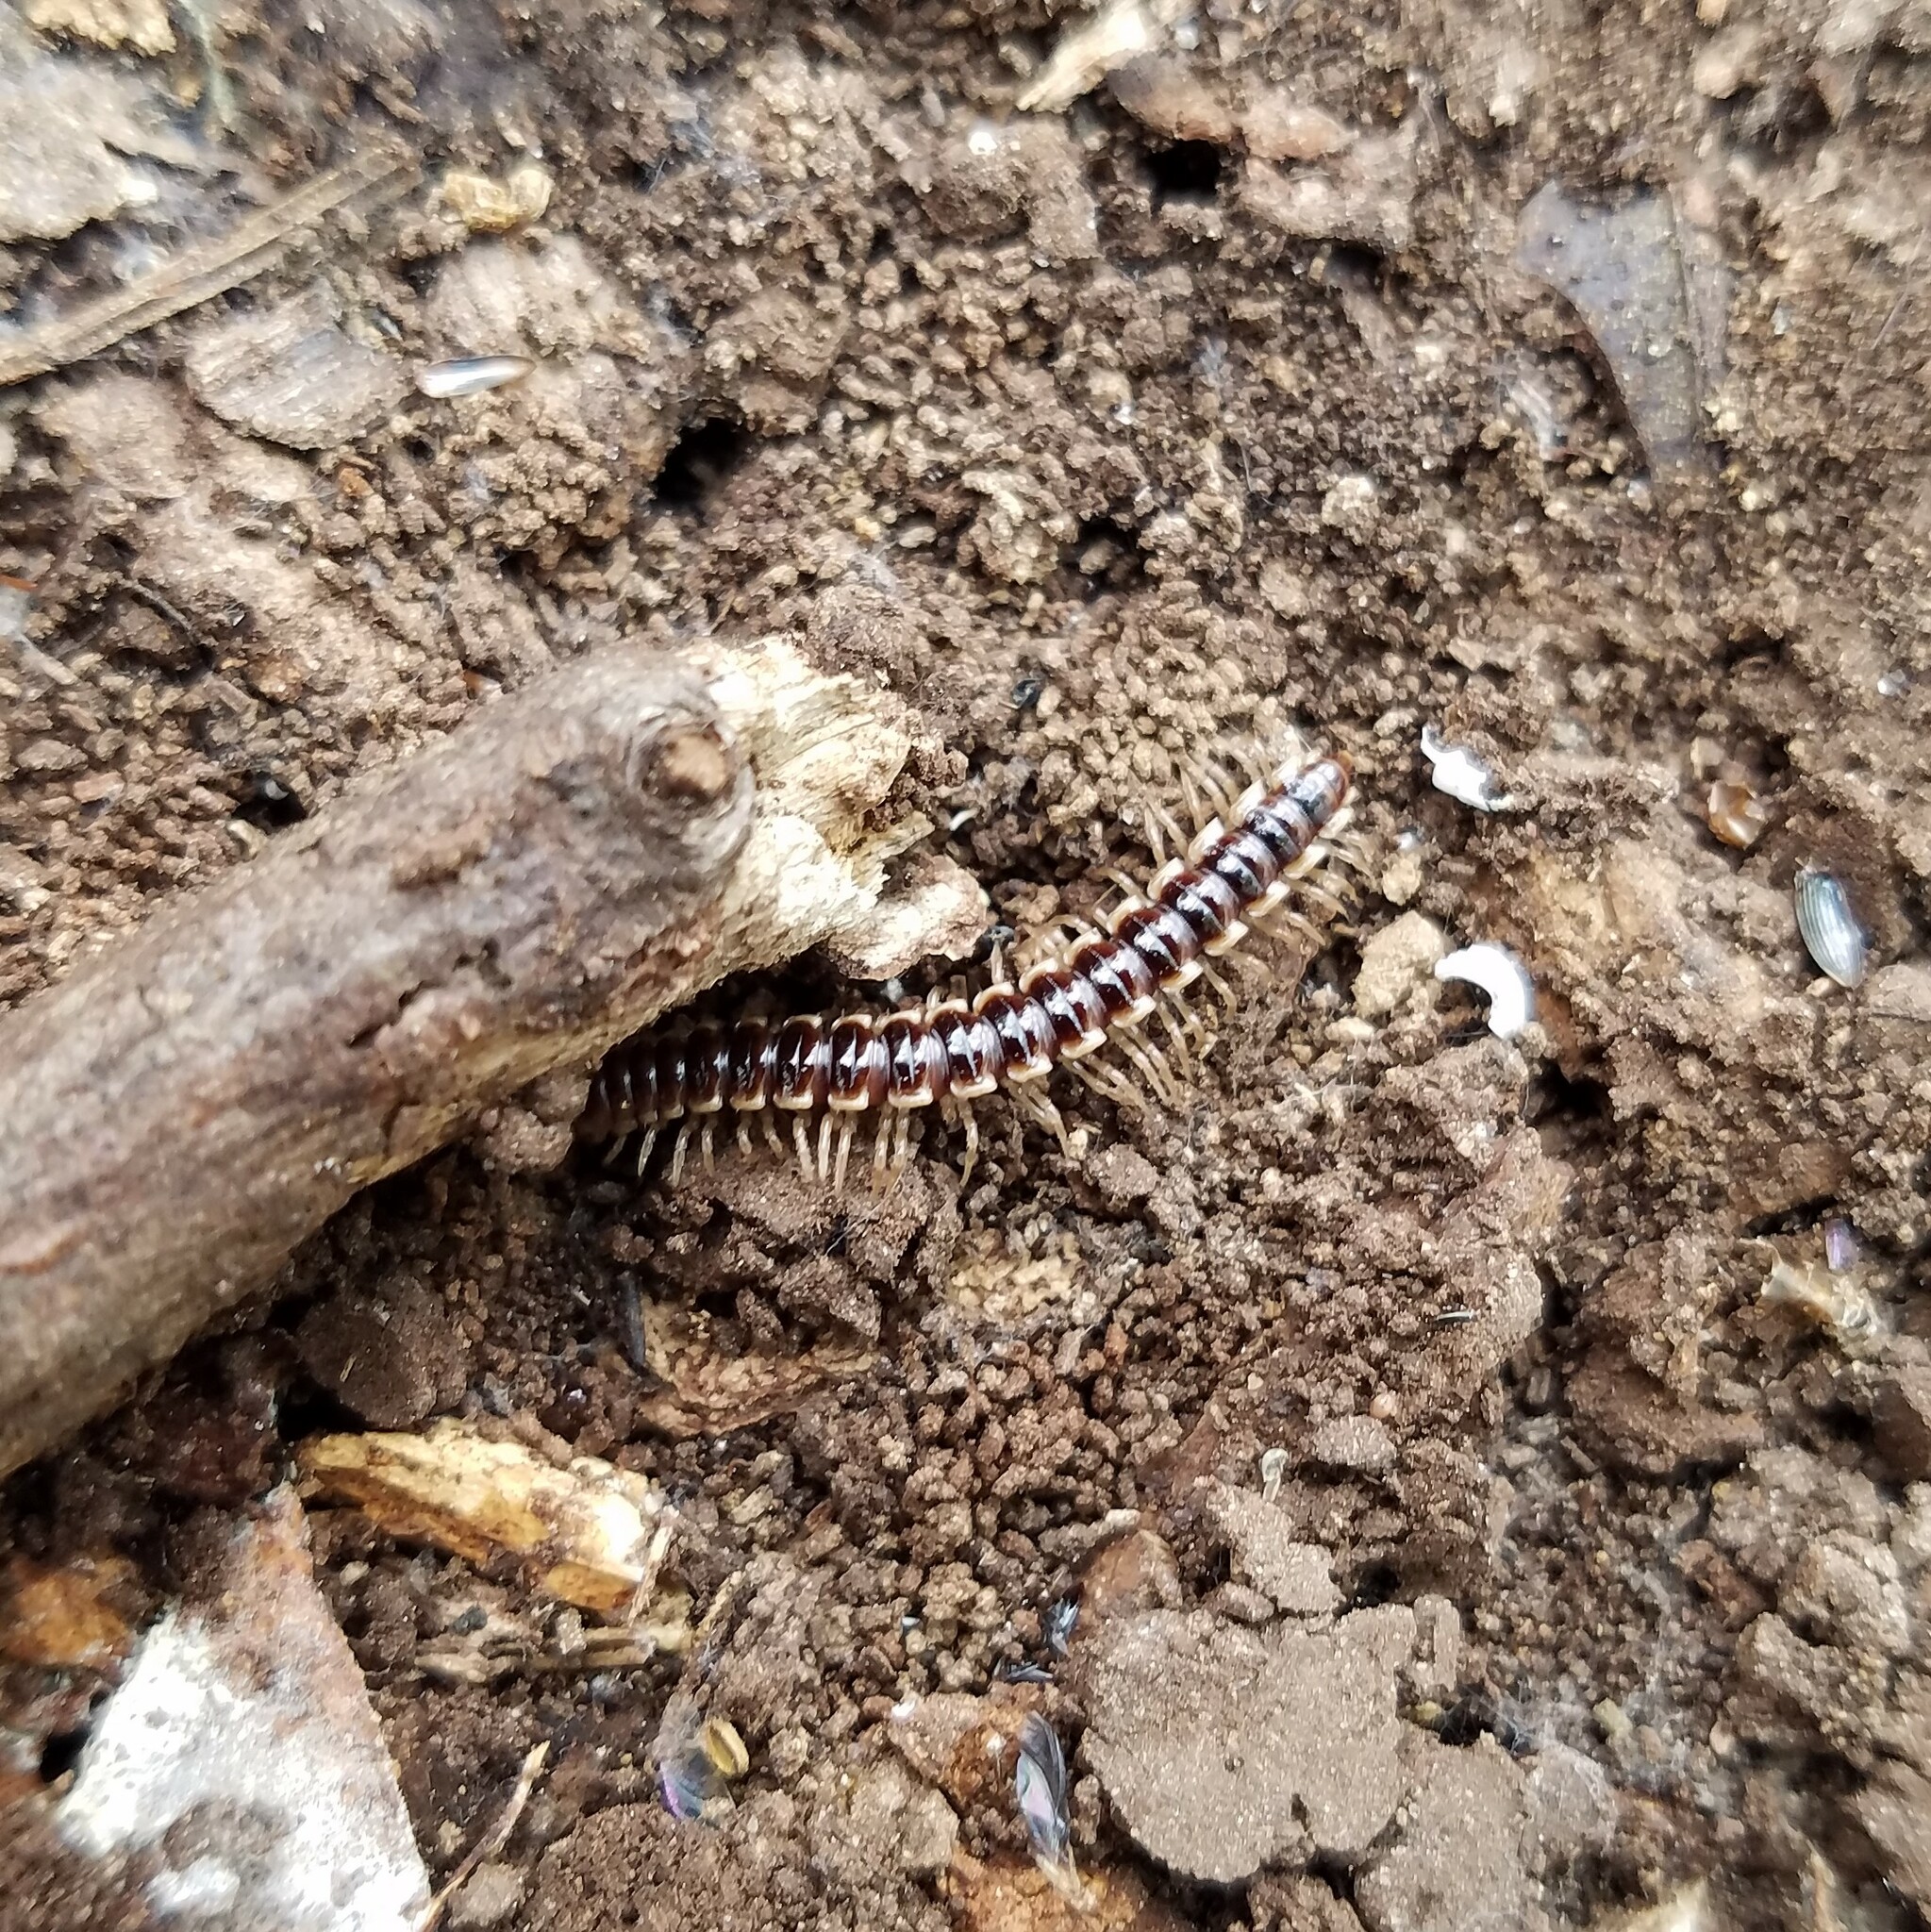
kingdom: Animalia
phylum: Arthropoda
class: Diplopoda
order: Polydesmida
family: Paradoxosomatidae
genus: Oxidus
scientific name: Oxidus gracilis
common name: Greenhouse millipede
